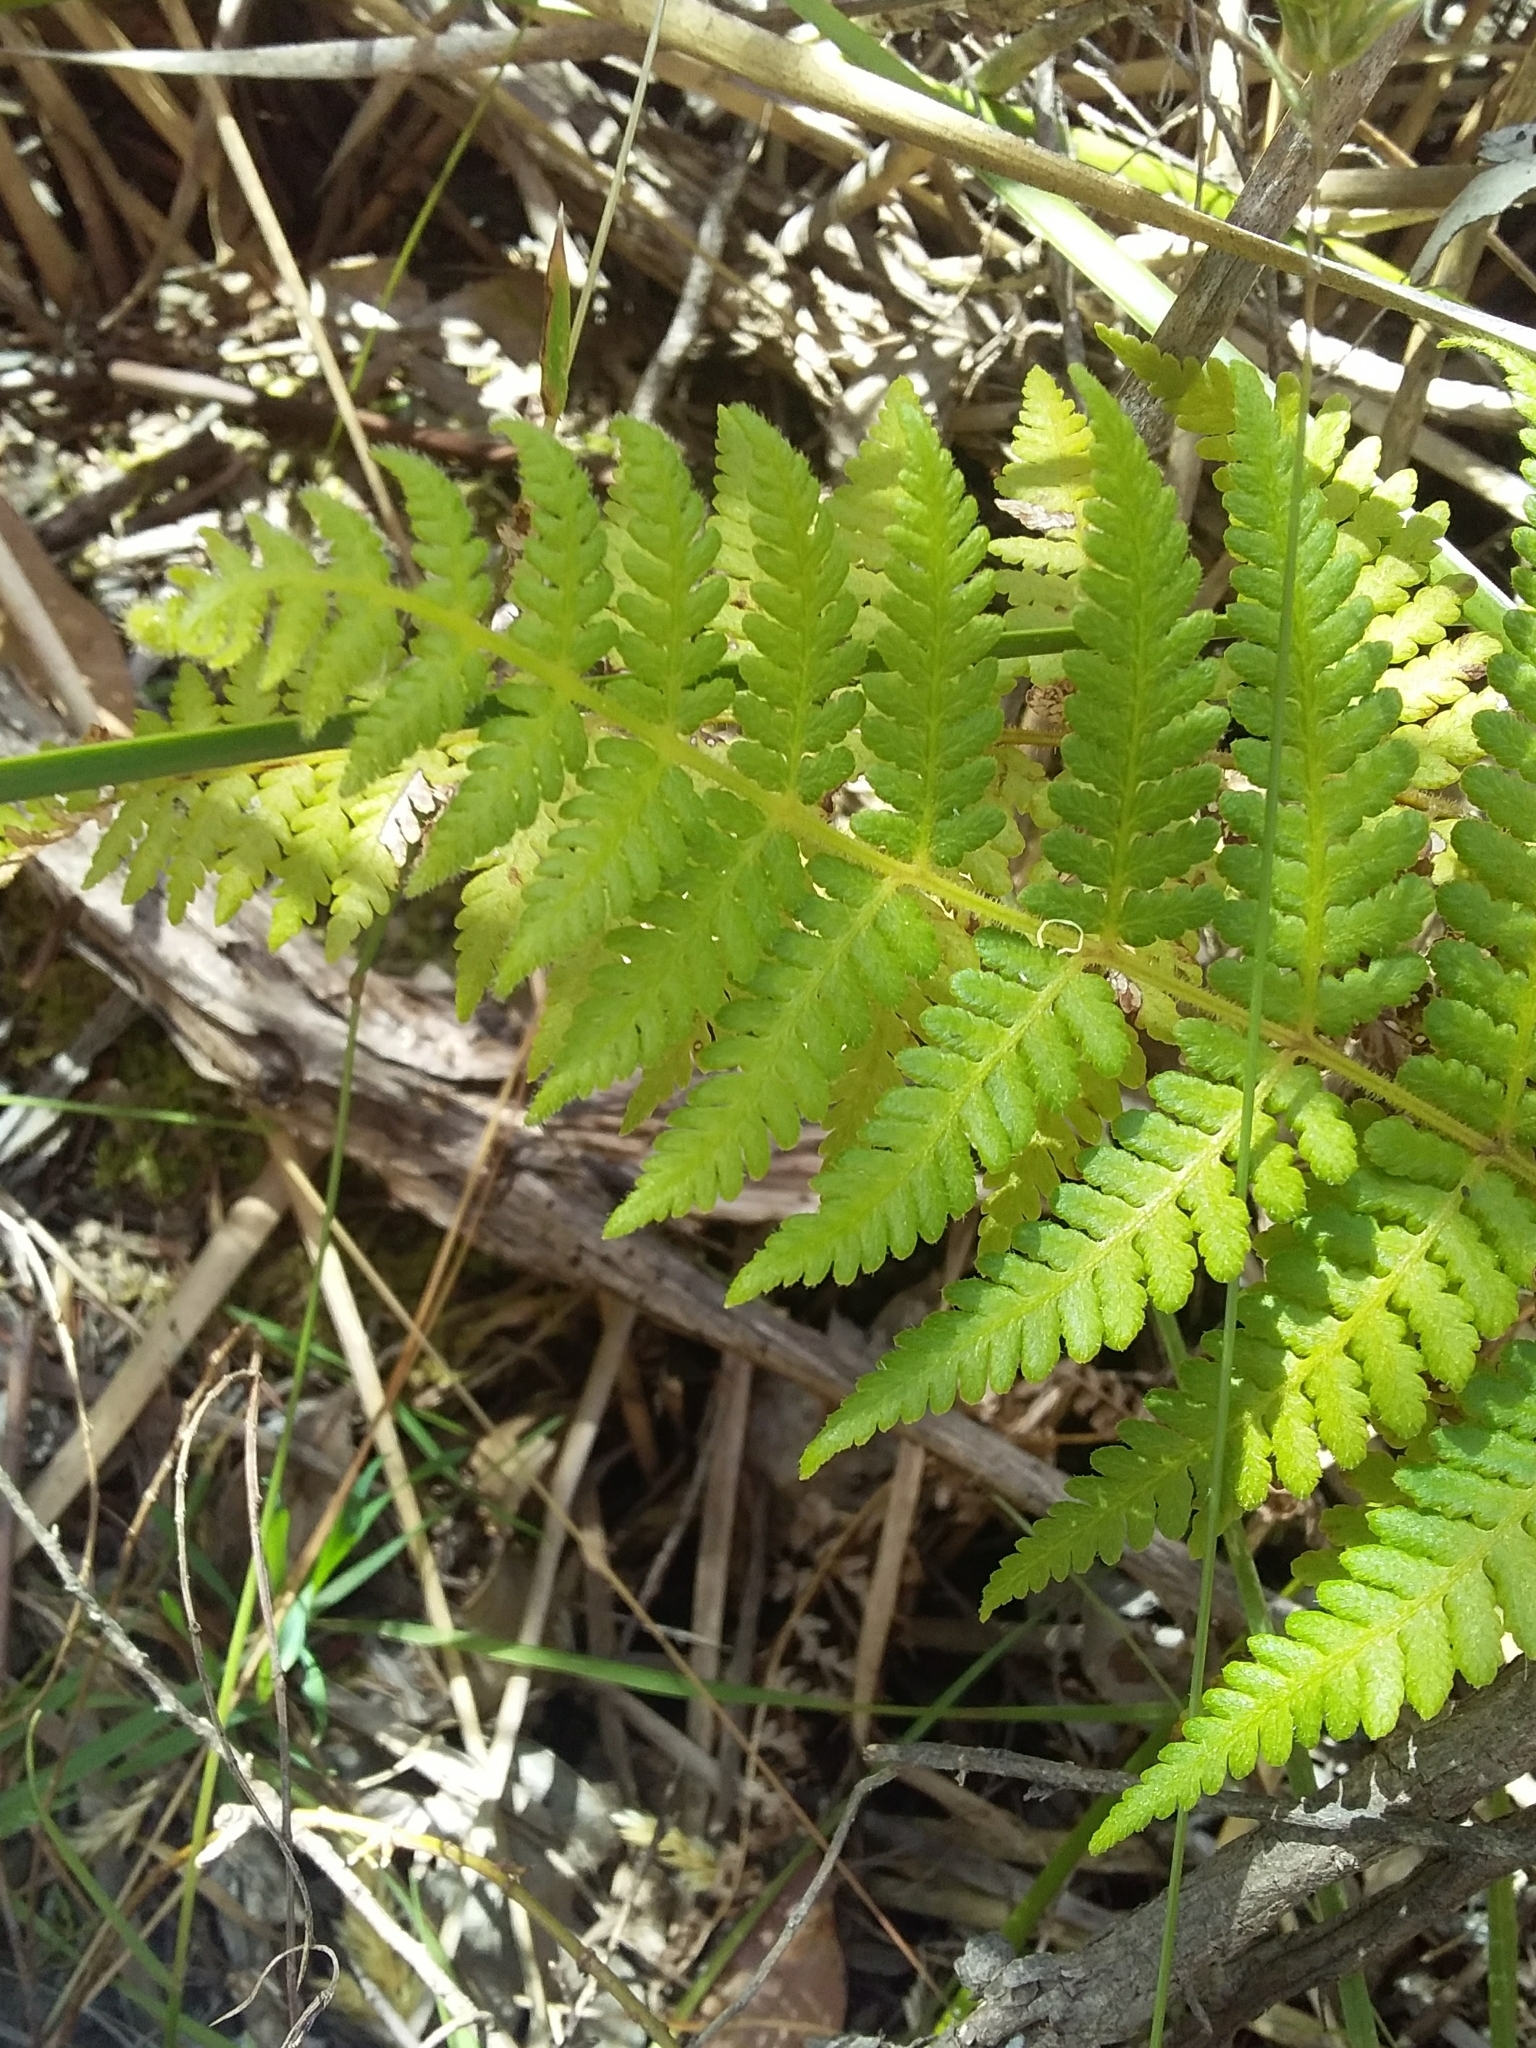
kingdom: Plantae
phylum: Tracheophyta
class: Polypodiopsida
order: Polypodiales
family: Dennstaedtiaceae
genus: Hypolepis
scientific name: Hypolepis rugosula
